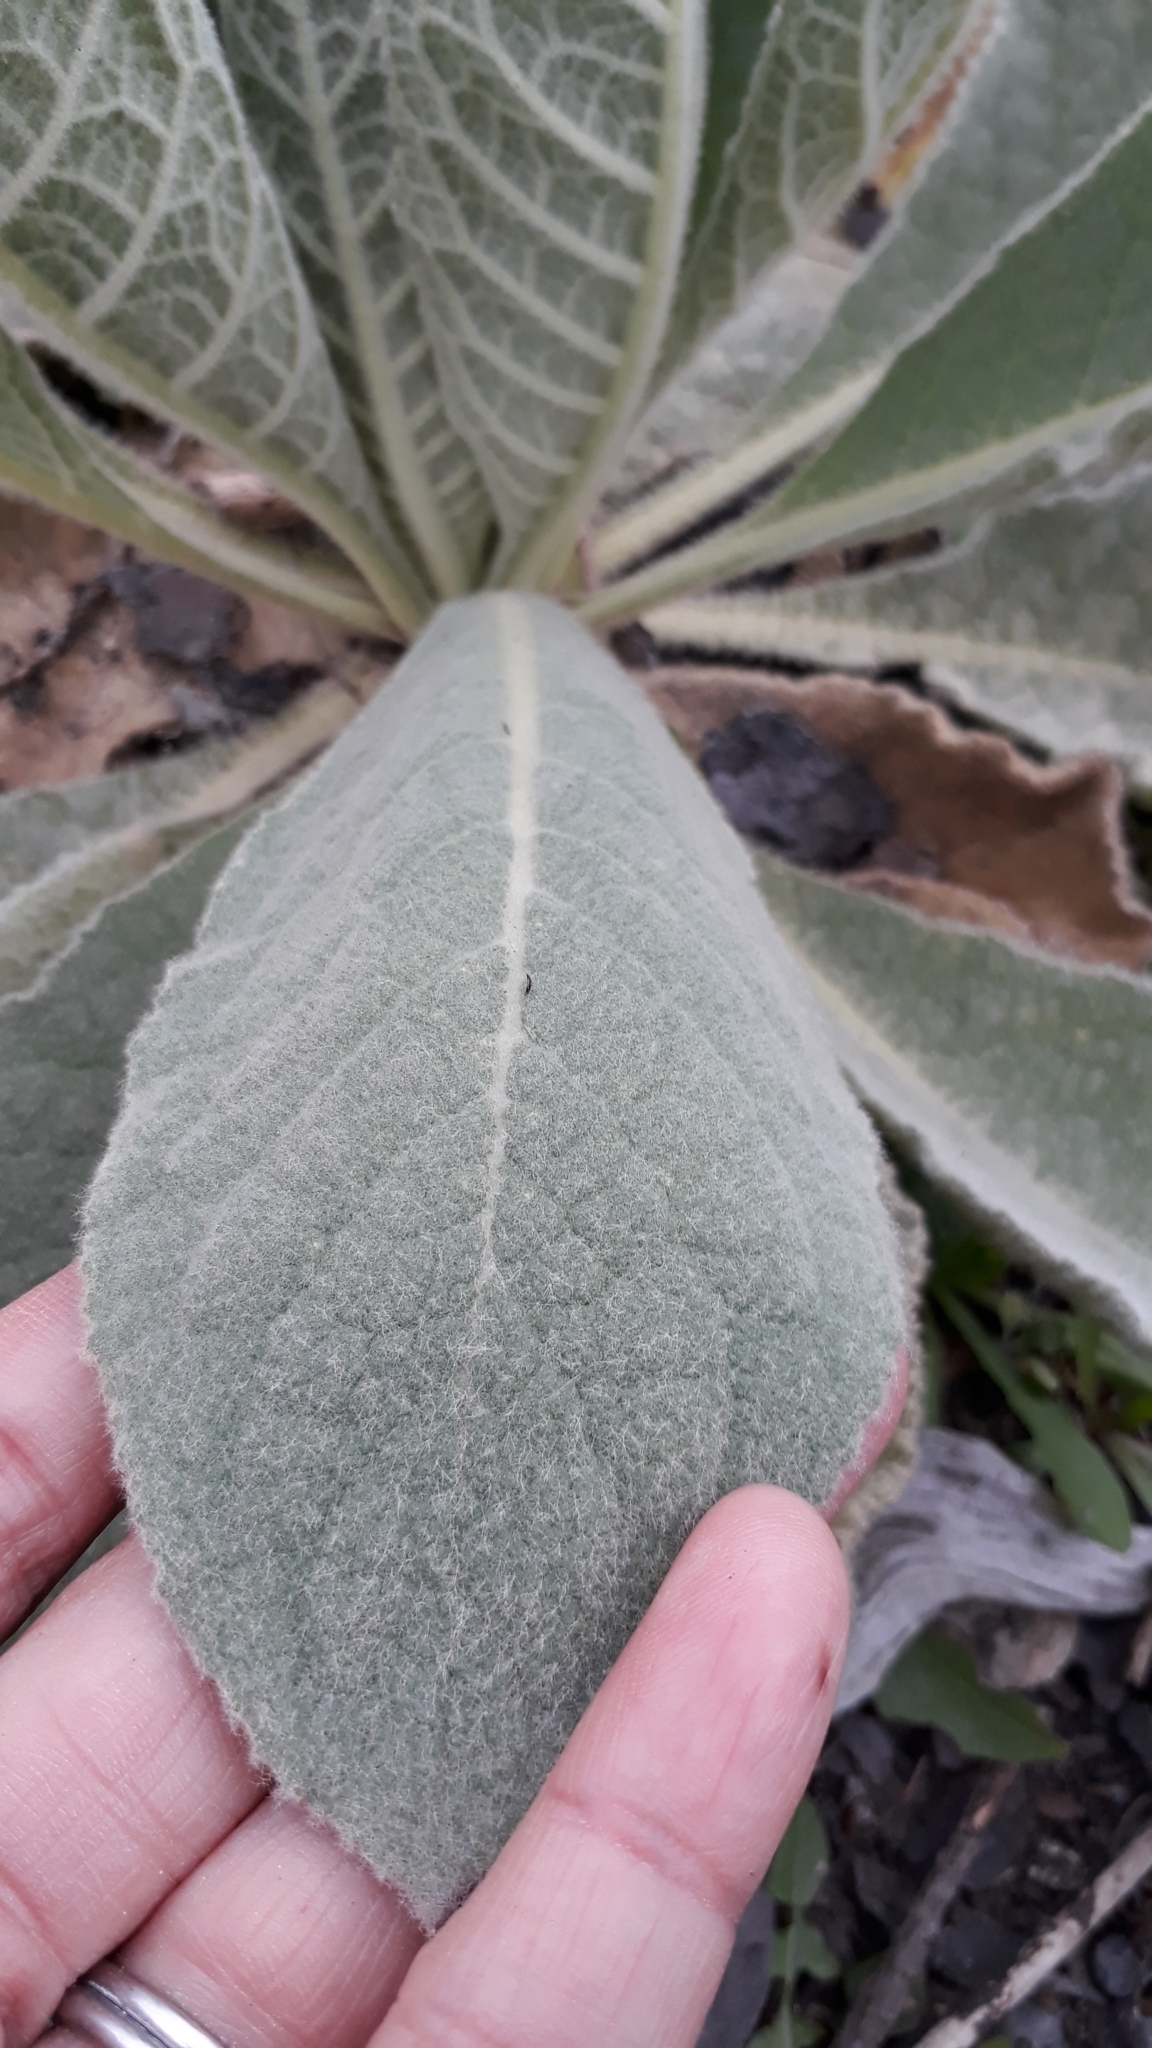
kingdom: Plantae
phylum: Tracheophyta
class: Magnoliopsida
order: Lamiales
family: Scrophulariaceae
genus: Verbascum
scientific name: Verbascum thapsus
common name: Common mullein
